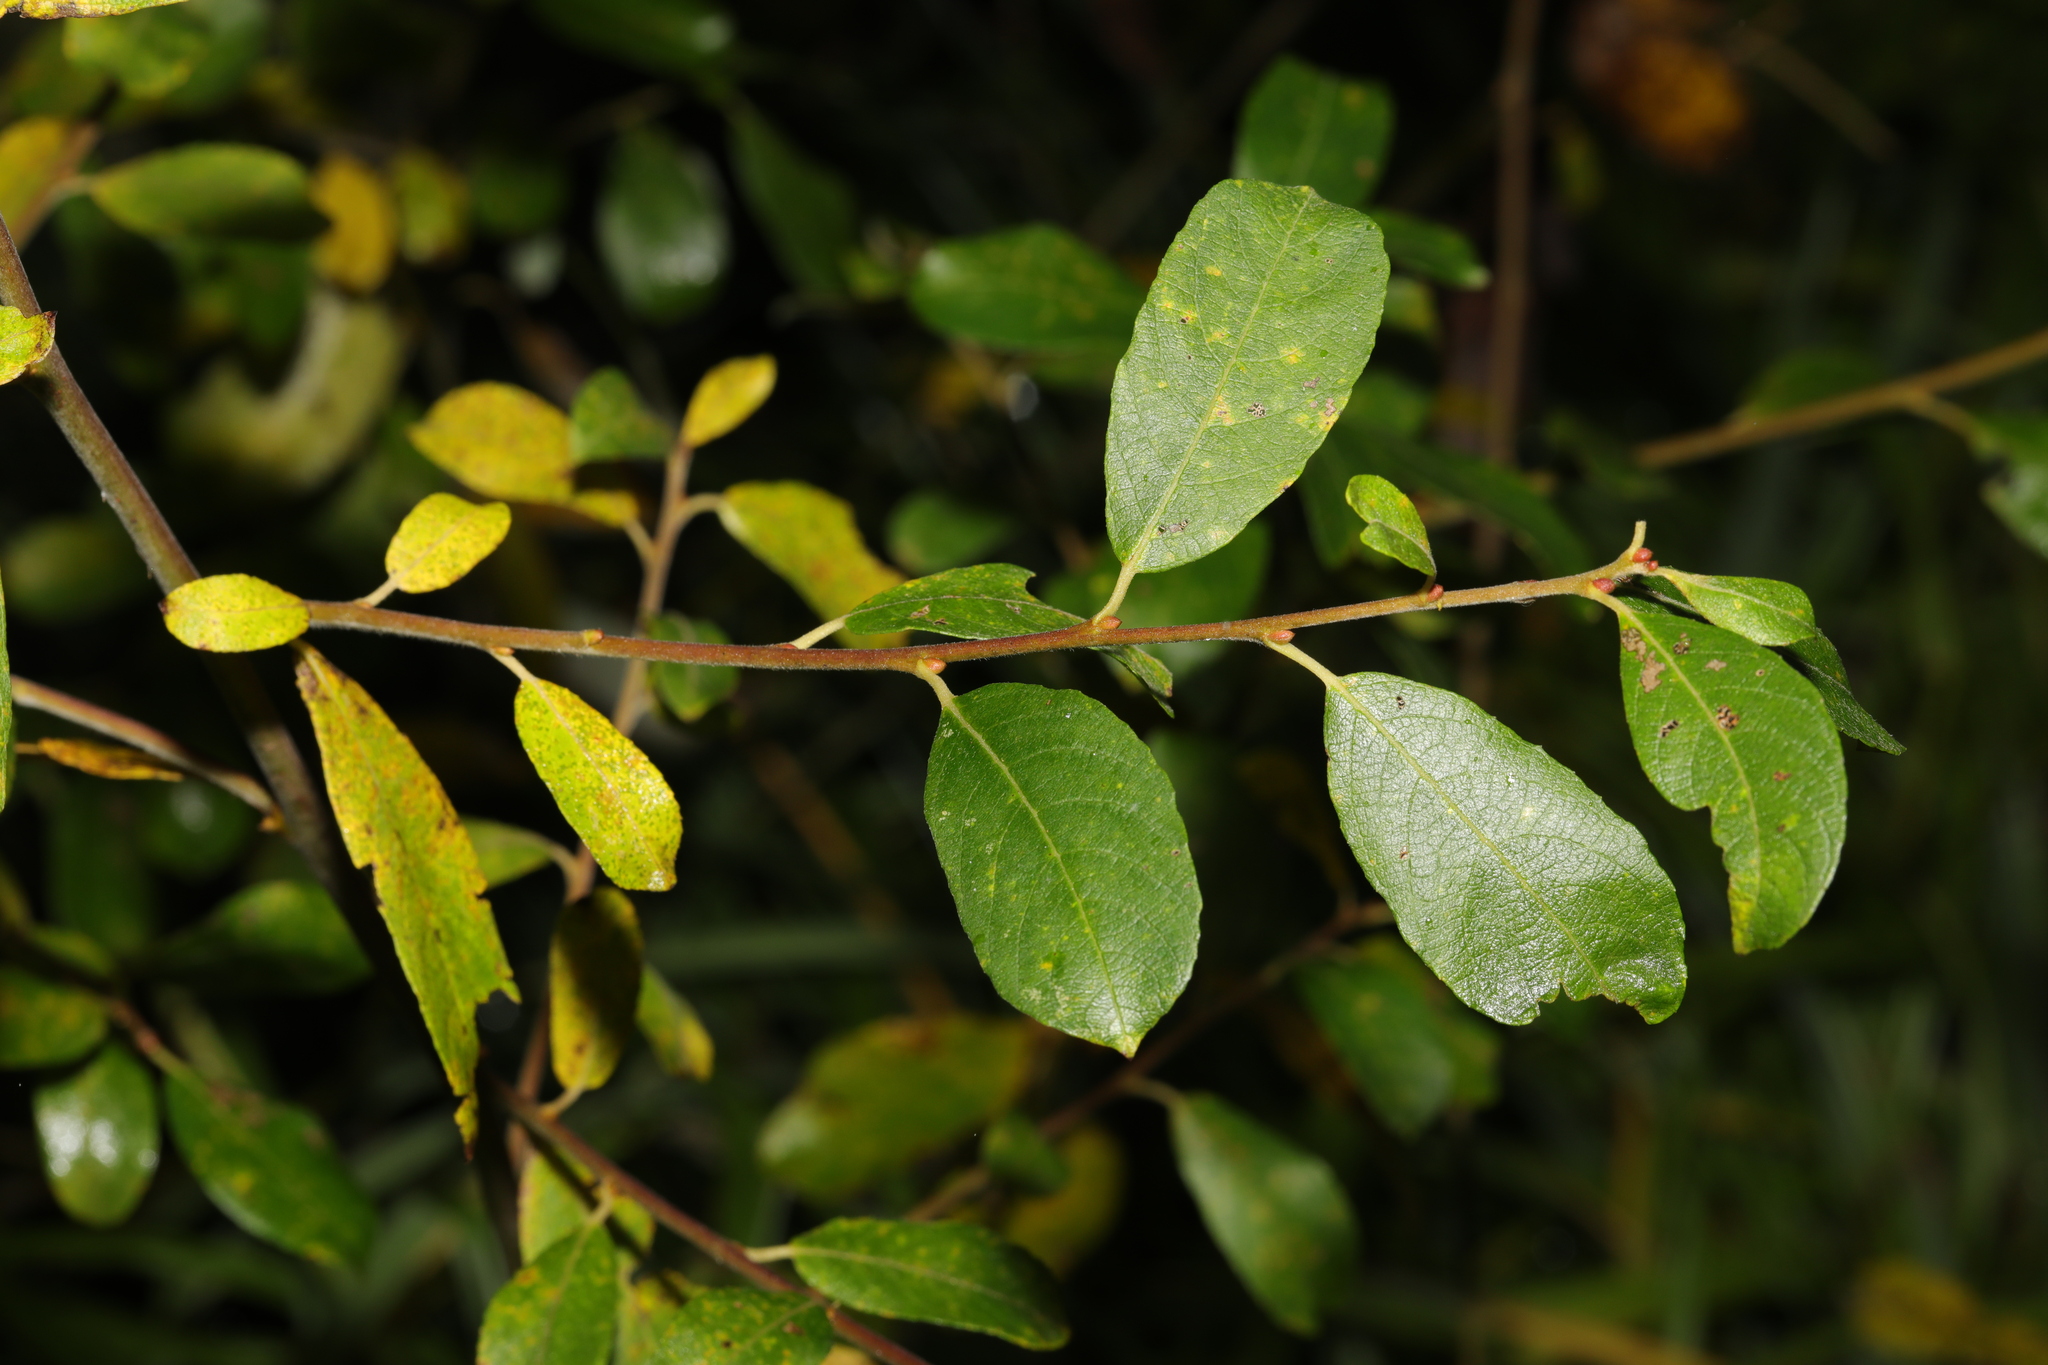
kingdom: Plantae
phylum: Tracheophyta
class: Magnoliopsida
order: Malpighiales
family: Salicaceae
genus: Salix
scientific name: Salix atrocinerea
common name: Rusty willow
